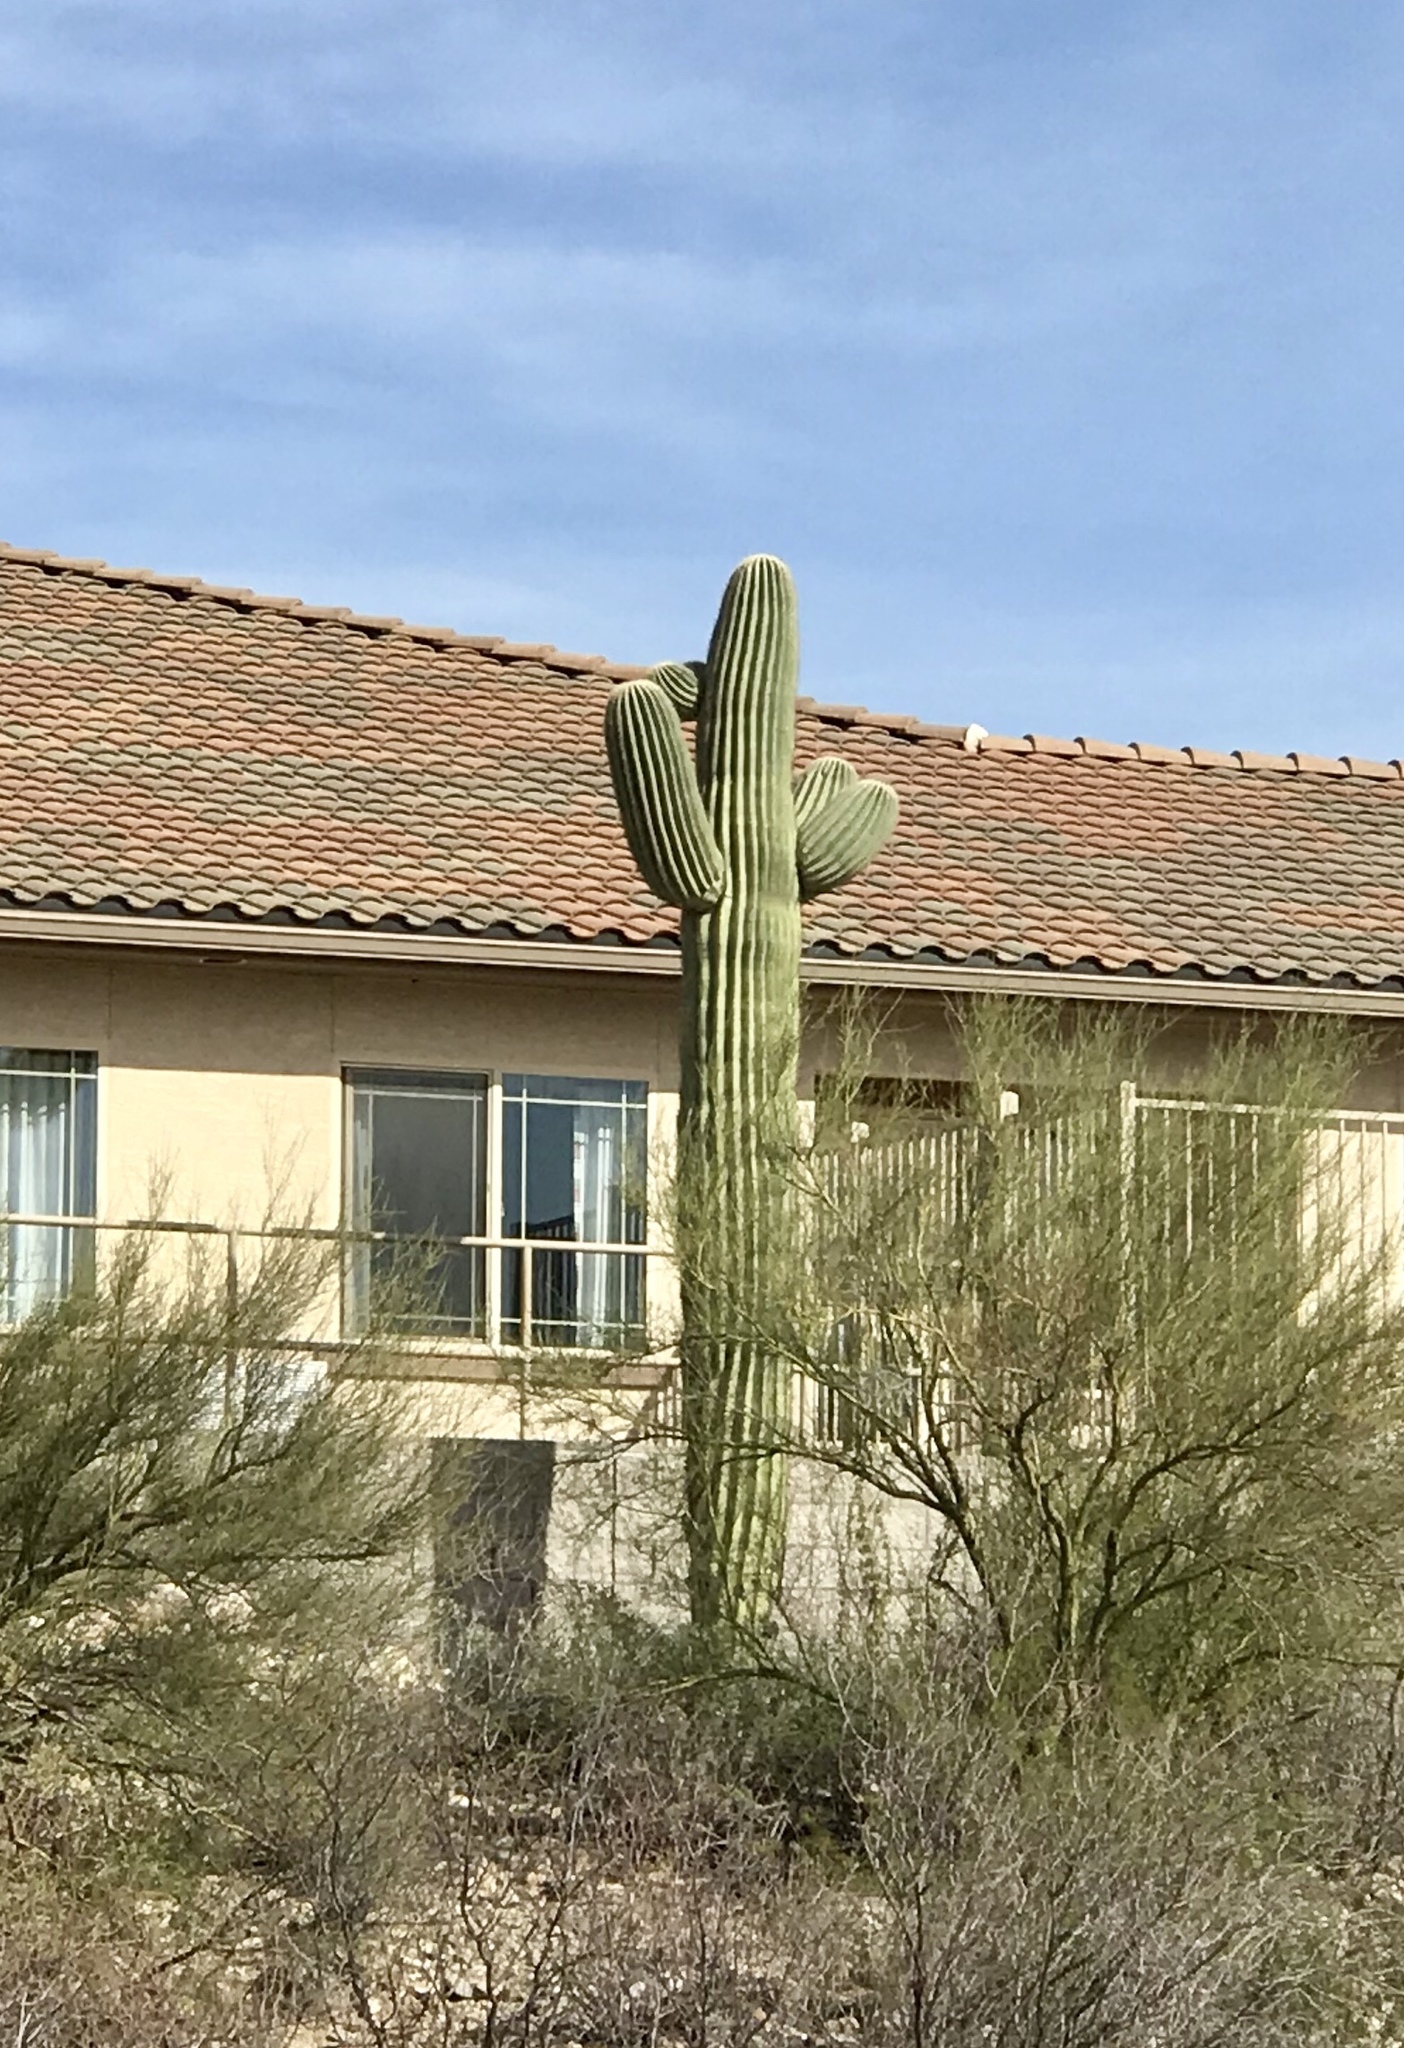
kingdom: Plantae
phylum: Tracheophyta
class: Magnoliopsida
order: Caryophyllales
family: Cactaceae
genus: Carnegiea
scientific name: Carnegiea gigantea
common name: Saguaro
